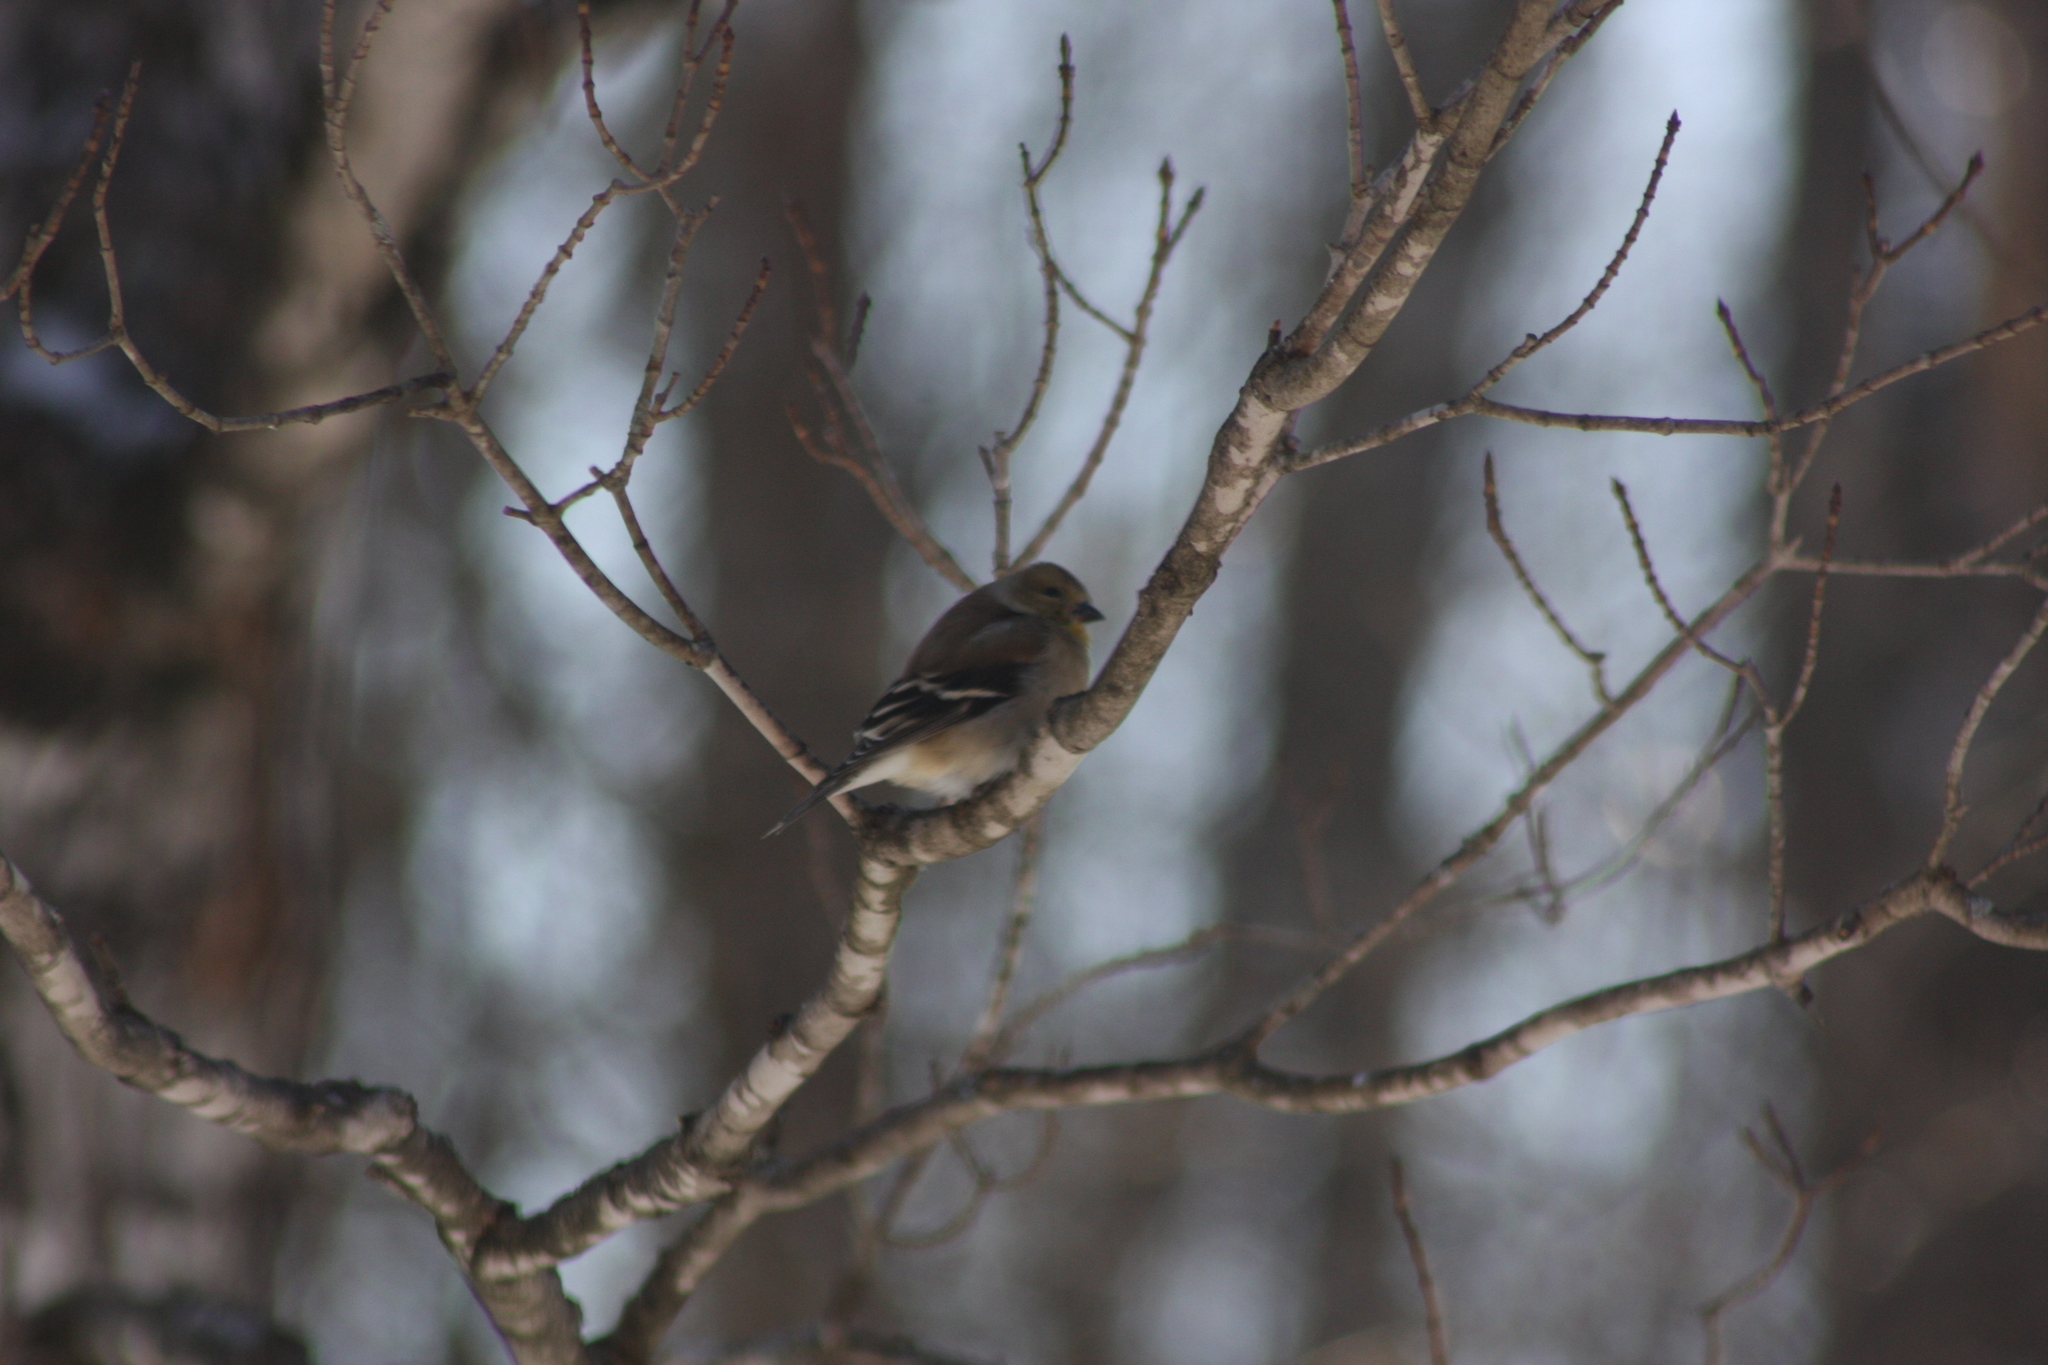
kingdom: Animalia
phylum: Chordata
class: Aves
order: Passeriformes
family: Fringillidae
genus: Spinus
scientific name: Spinus tristis
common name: American goldfinch
